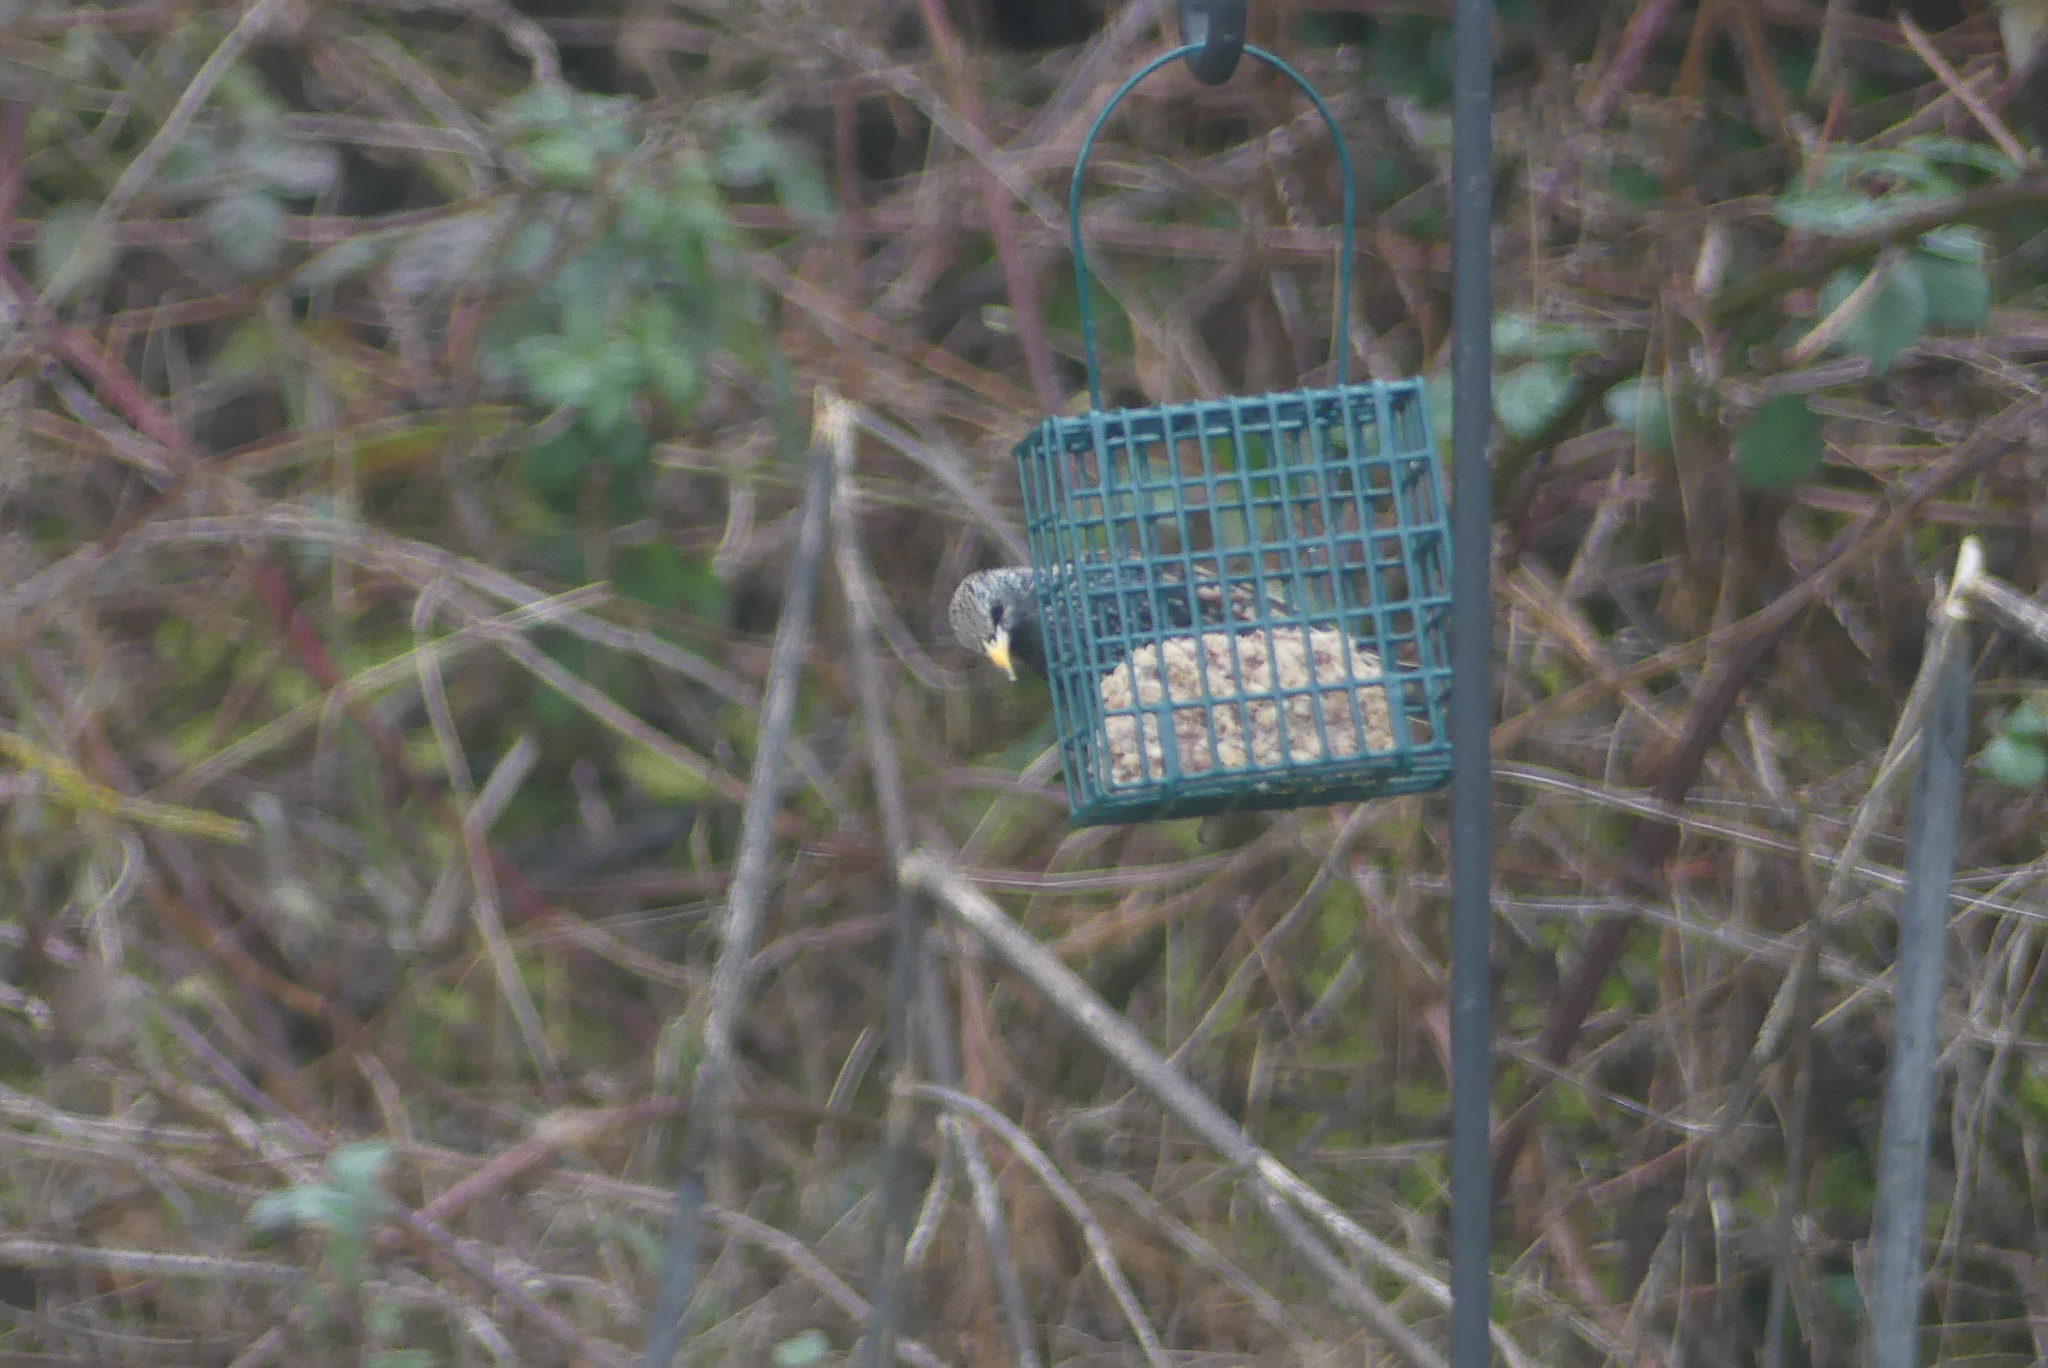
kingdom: Animalia
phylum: Chordata
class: Aves
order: Passeriformes
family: Sturnidae
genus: Sturnus
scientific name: Sturnus vulgaris
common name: Common starling
